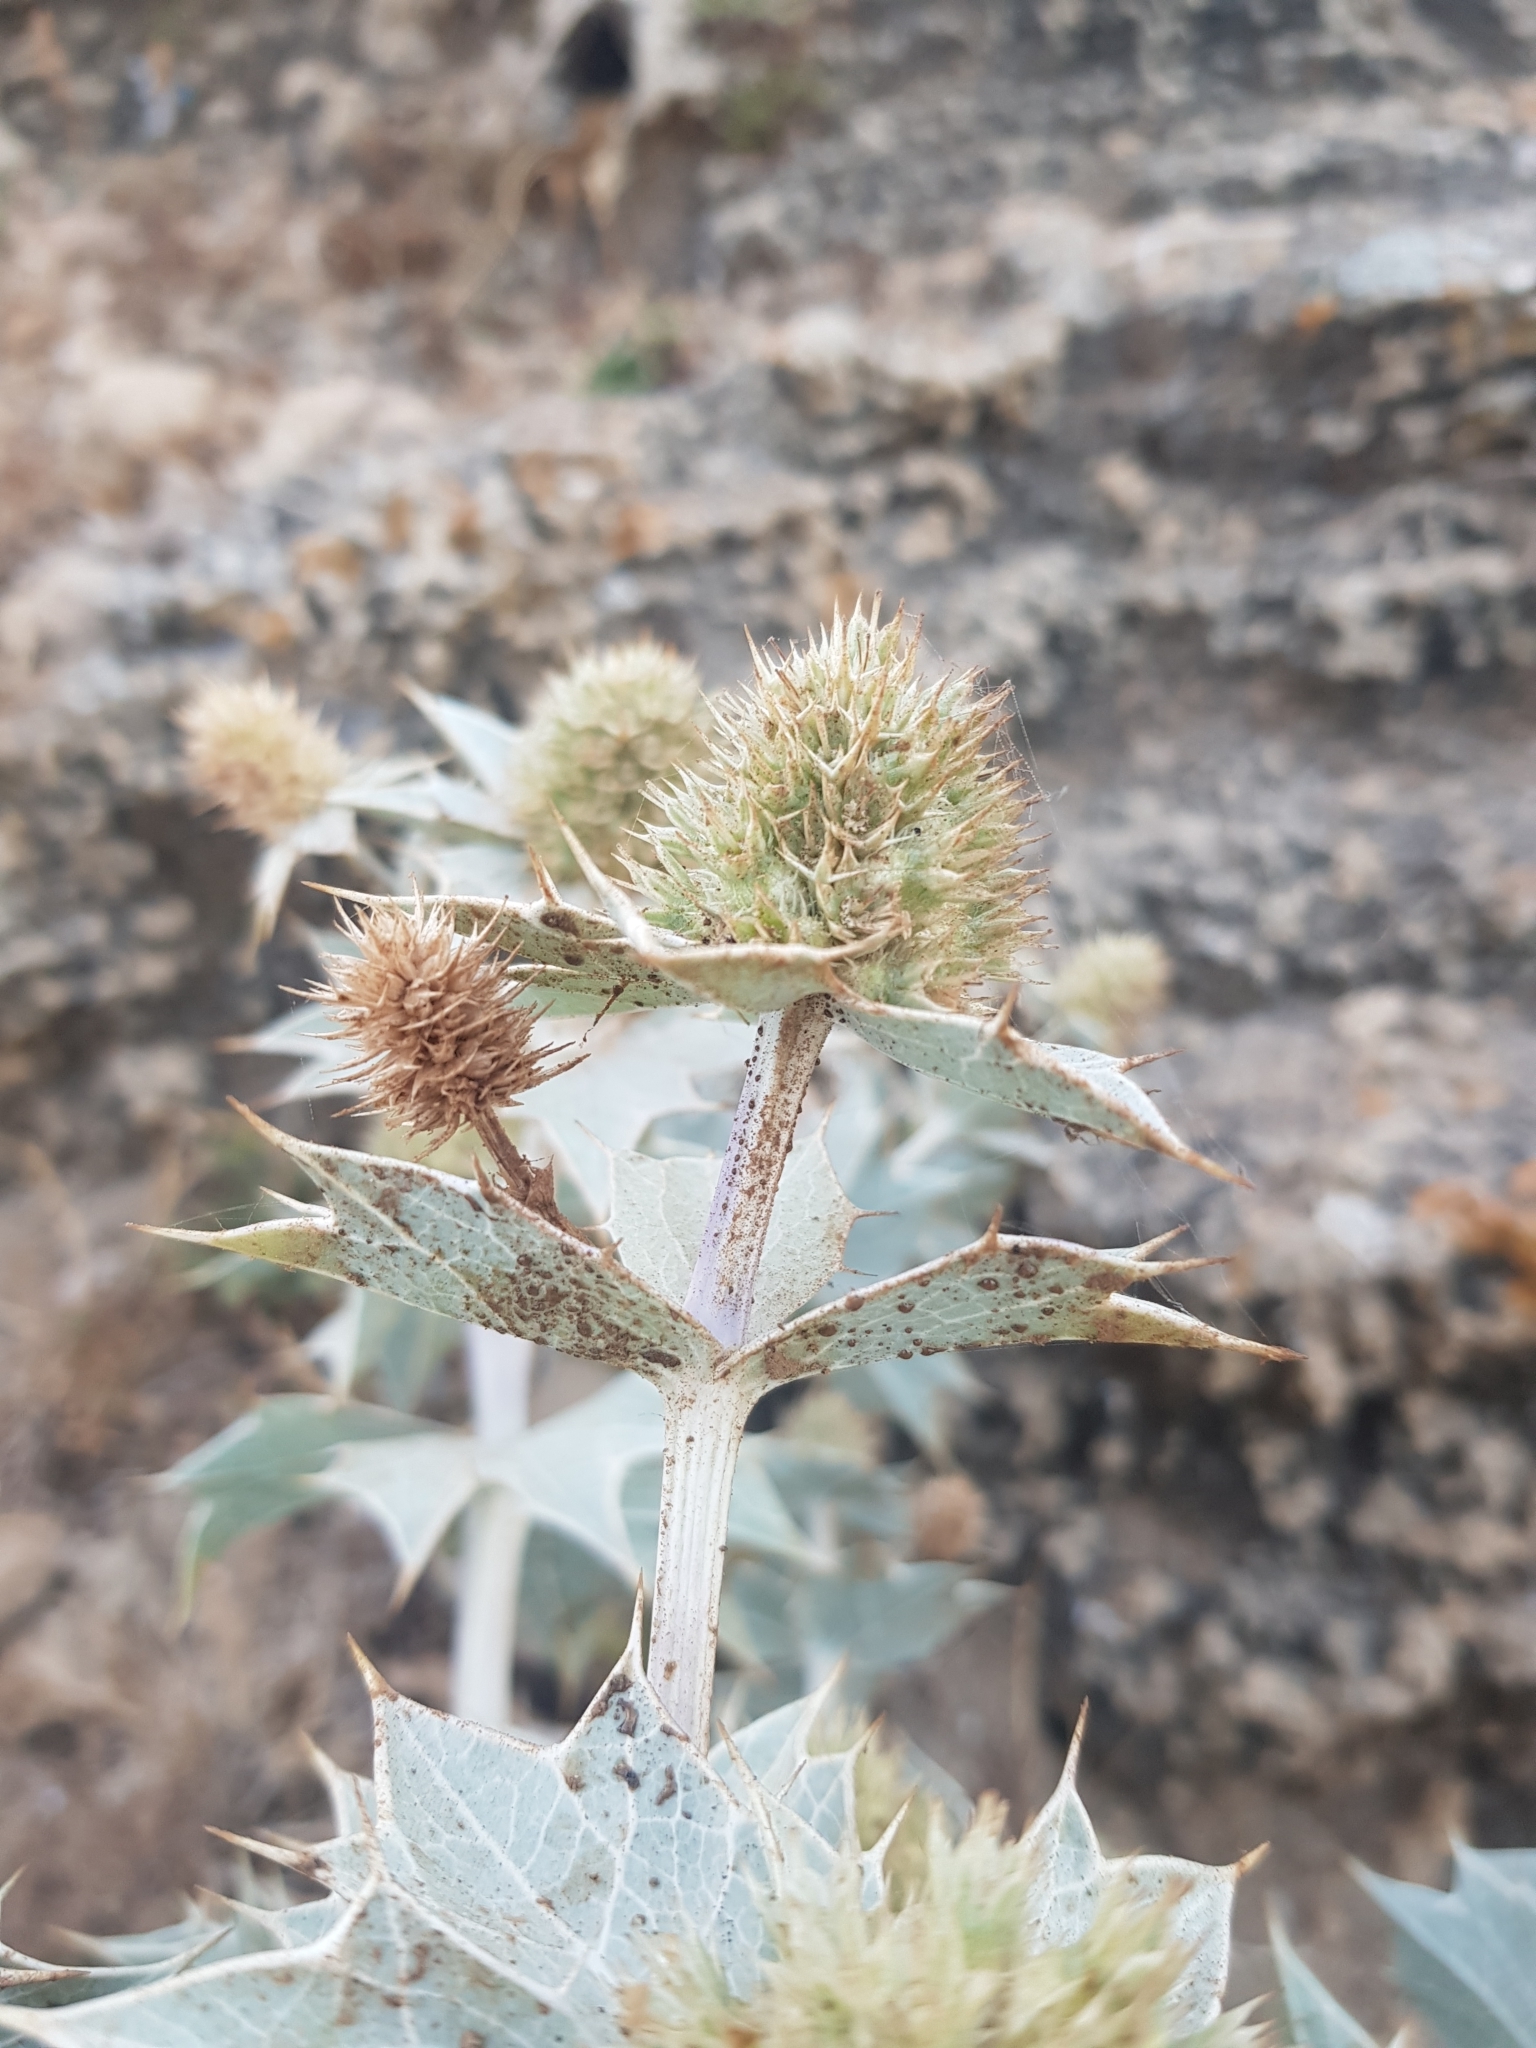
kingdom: Plantae
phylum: Tracheophyta
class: Magnoliopsida
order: Apiales
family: Apiaceae
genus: Eryngium
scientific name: Eryngium maritimum
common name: Sea-holly
